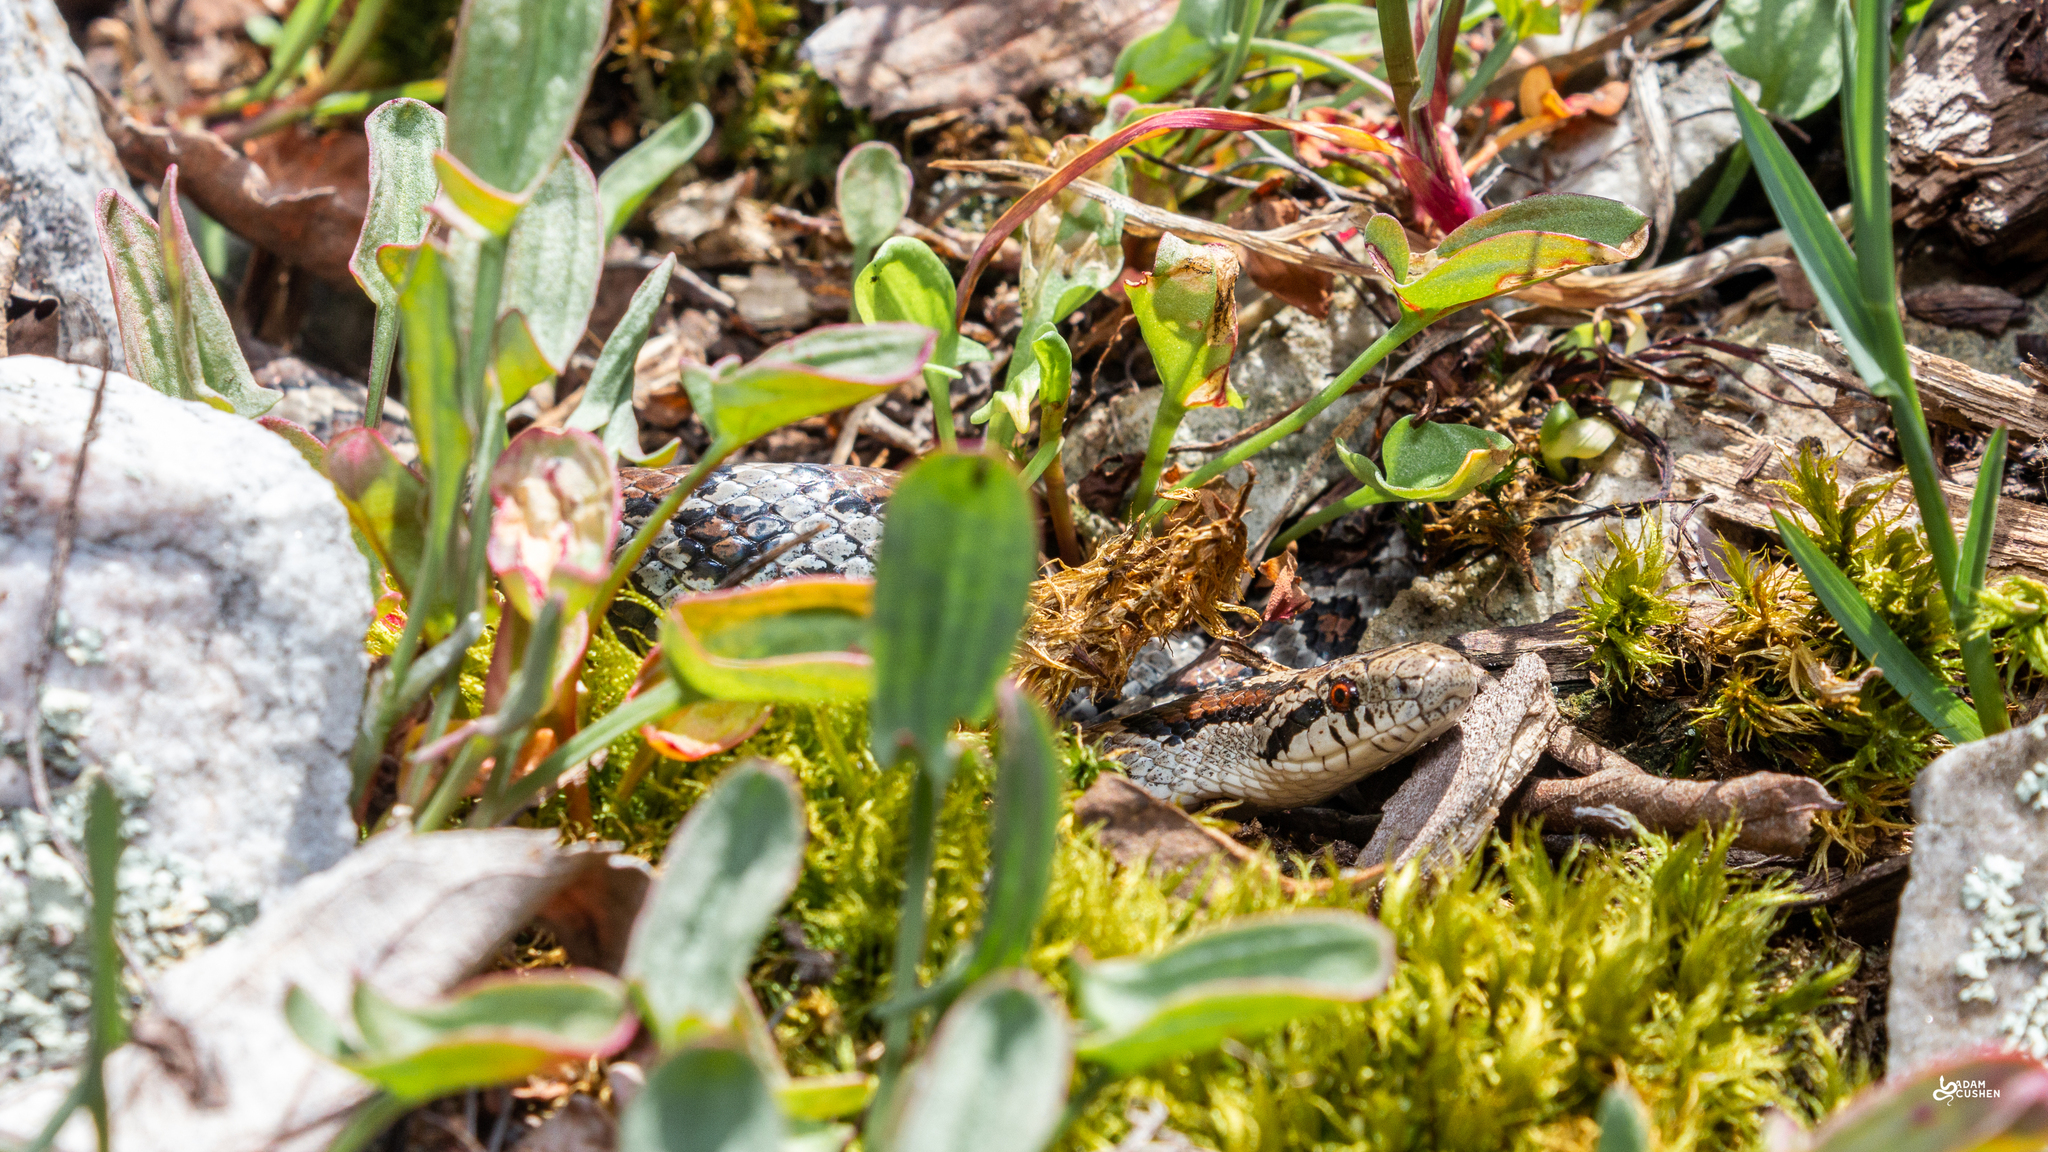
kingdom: Animalia
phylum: Chordata
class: Squamata
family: Colubridae
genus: Lampropeltis
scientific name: Lampropeltis triangulum
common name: Eastern milksnake
